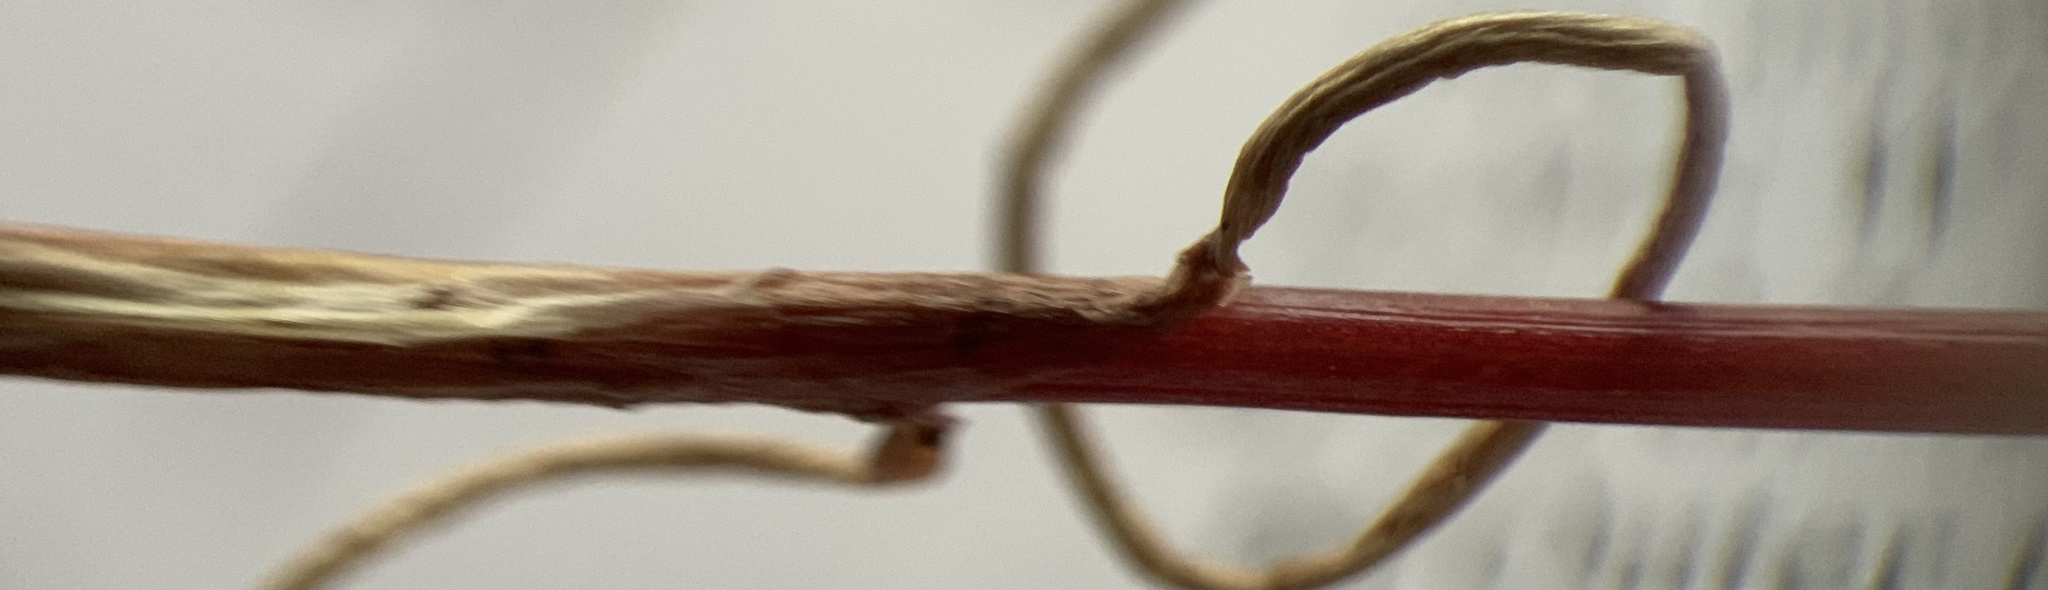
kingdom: Plantae
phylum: Tracheophyta
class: Liliopsida
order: Asparagales
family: Amaryllidaceae
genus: Allium
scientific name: Allium acuminatum
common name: Hooker's onion
